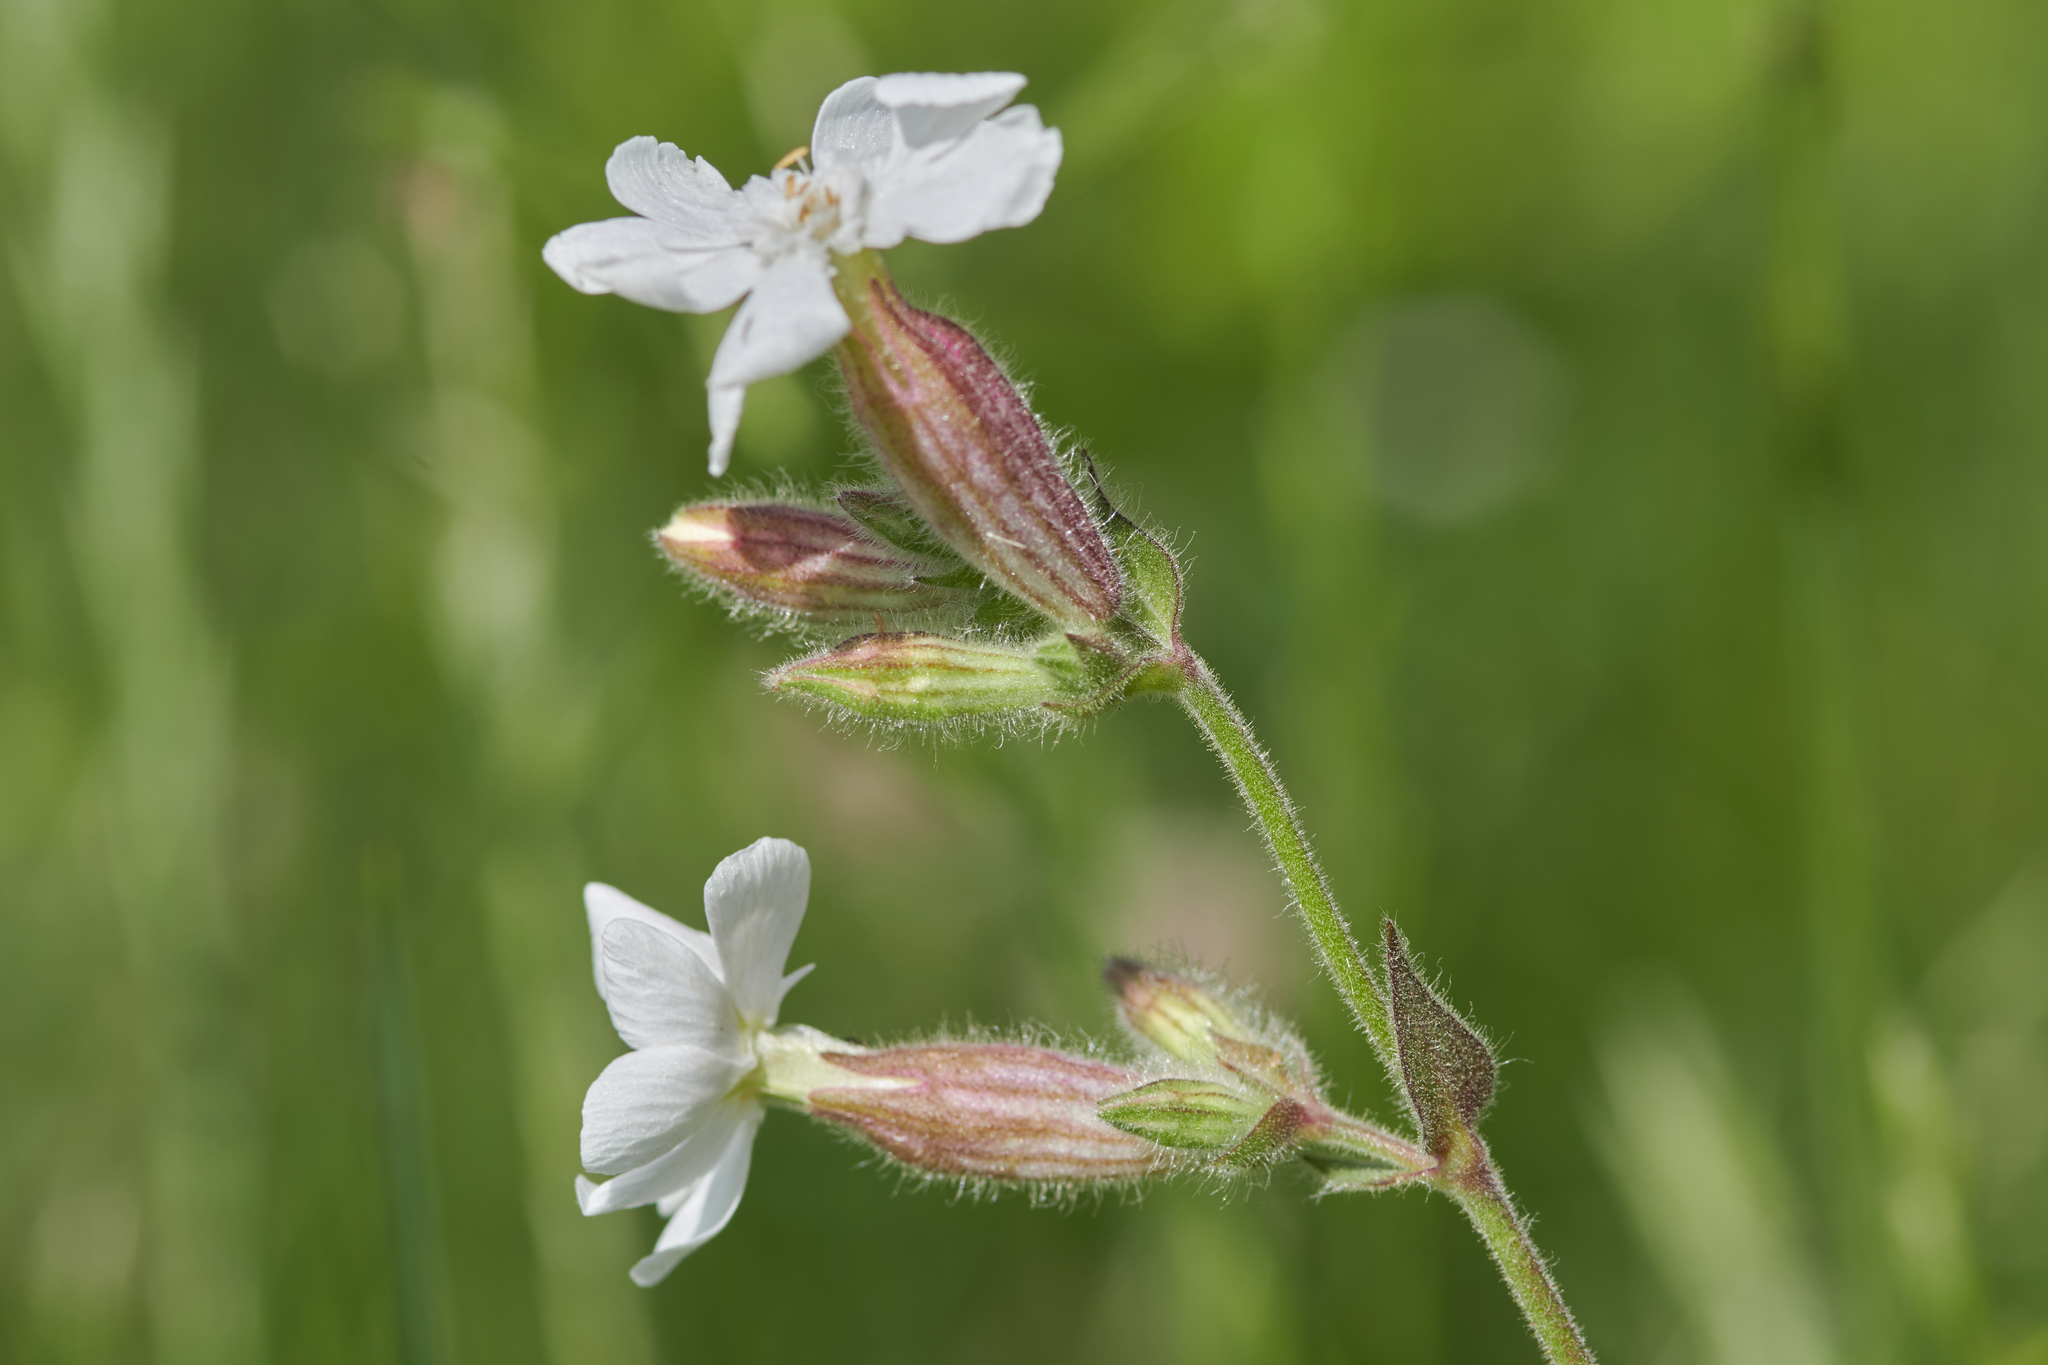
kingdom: Plantae
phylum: Tracheophyta
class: Magnoliopsida
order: Caryophyllales
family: Caryophyllaceae
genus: Silene
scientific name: Silene latifolia
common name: White campion
